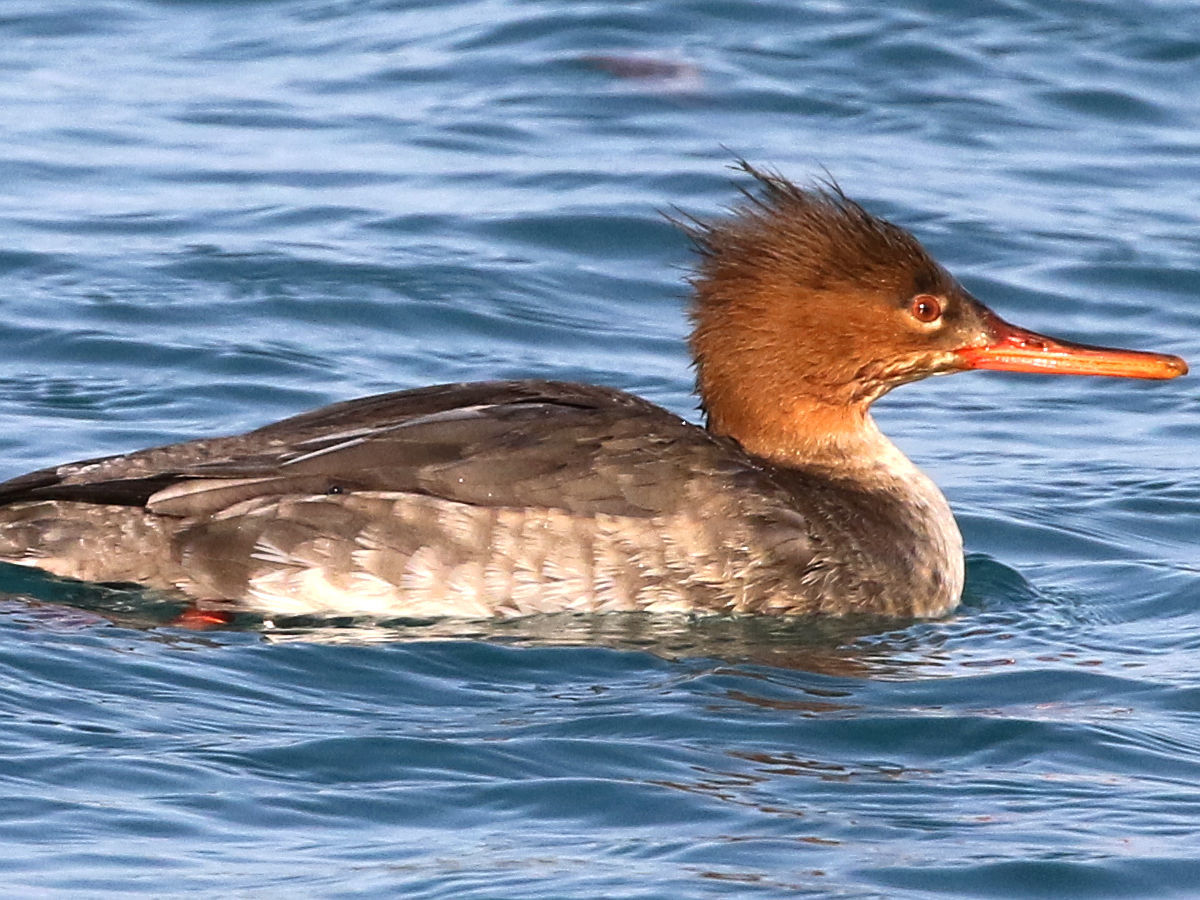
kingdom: Animalia
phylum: Chordata
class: Aves
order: Anseriformes
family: Anatidae
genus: Mergus
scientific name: Mergus serrator
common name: Red-breasted merganser
